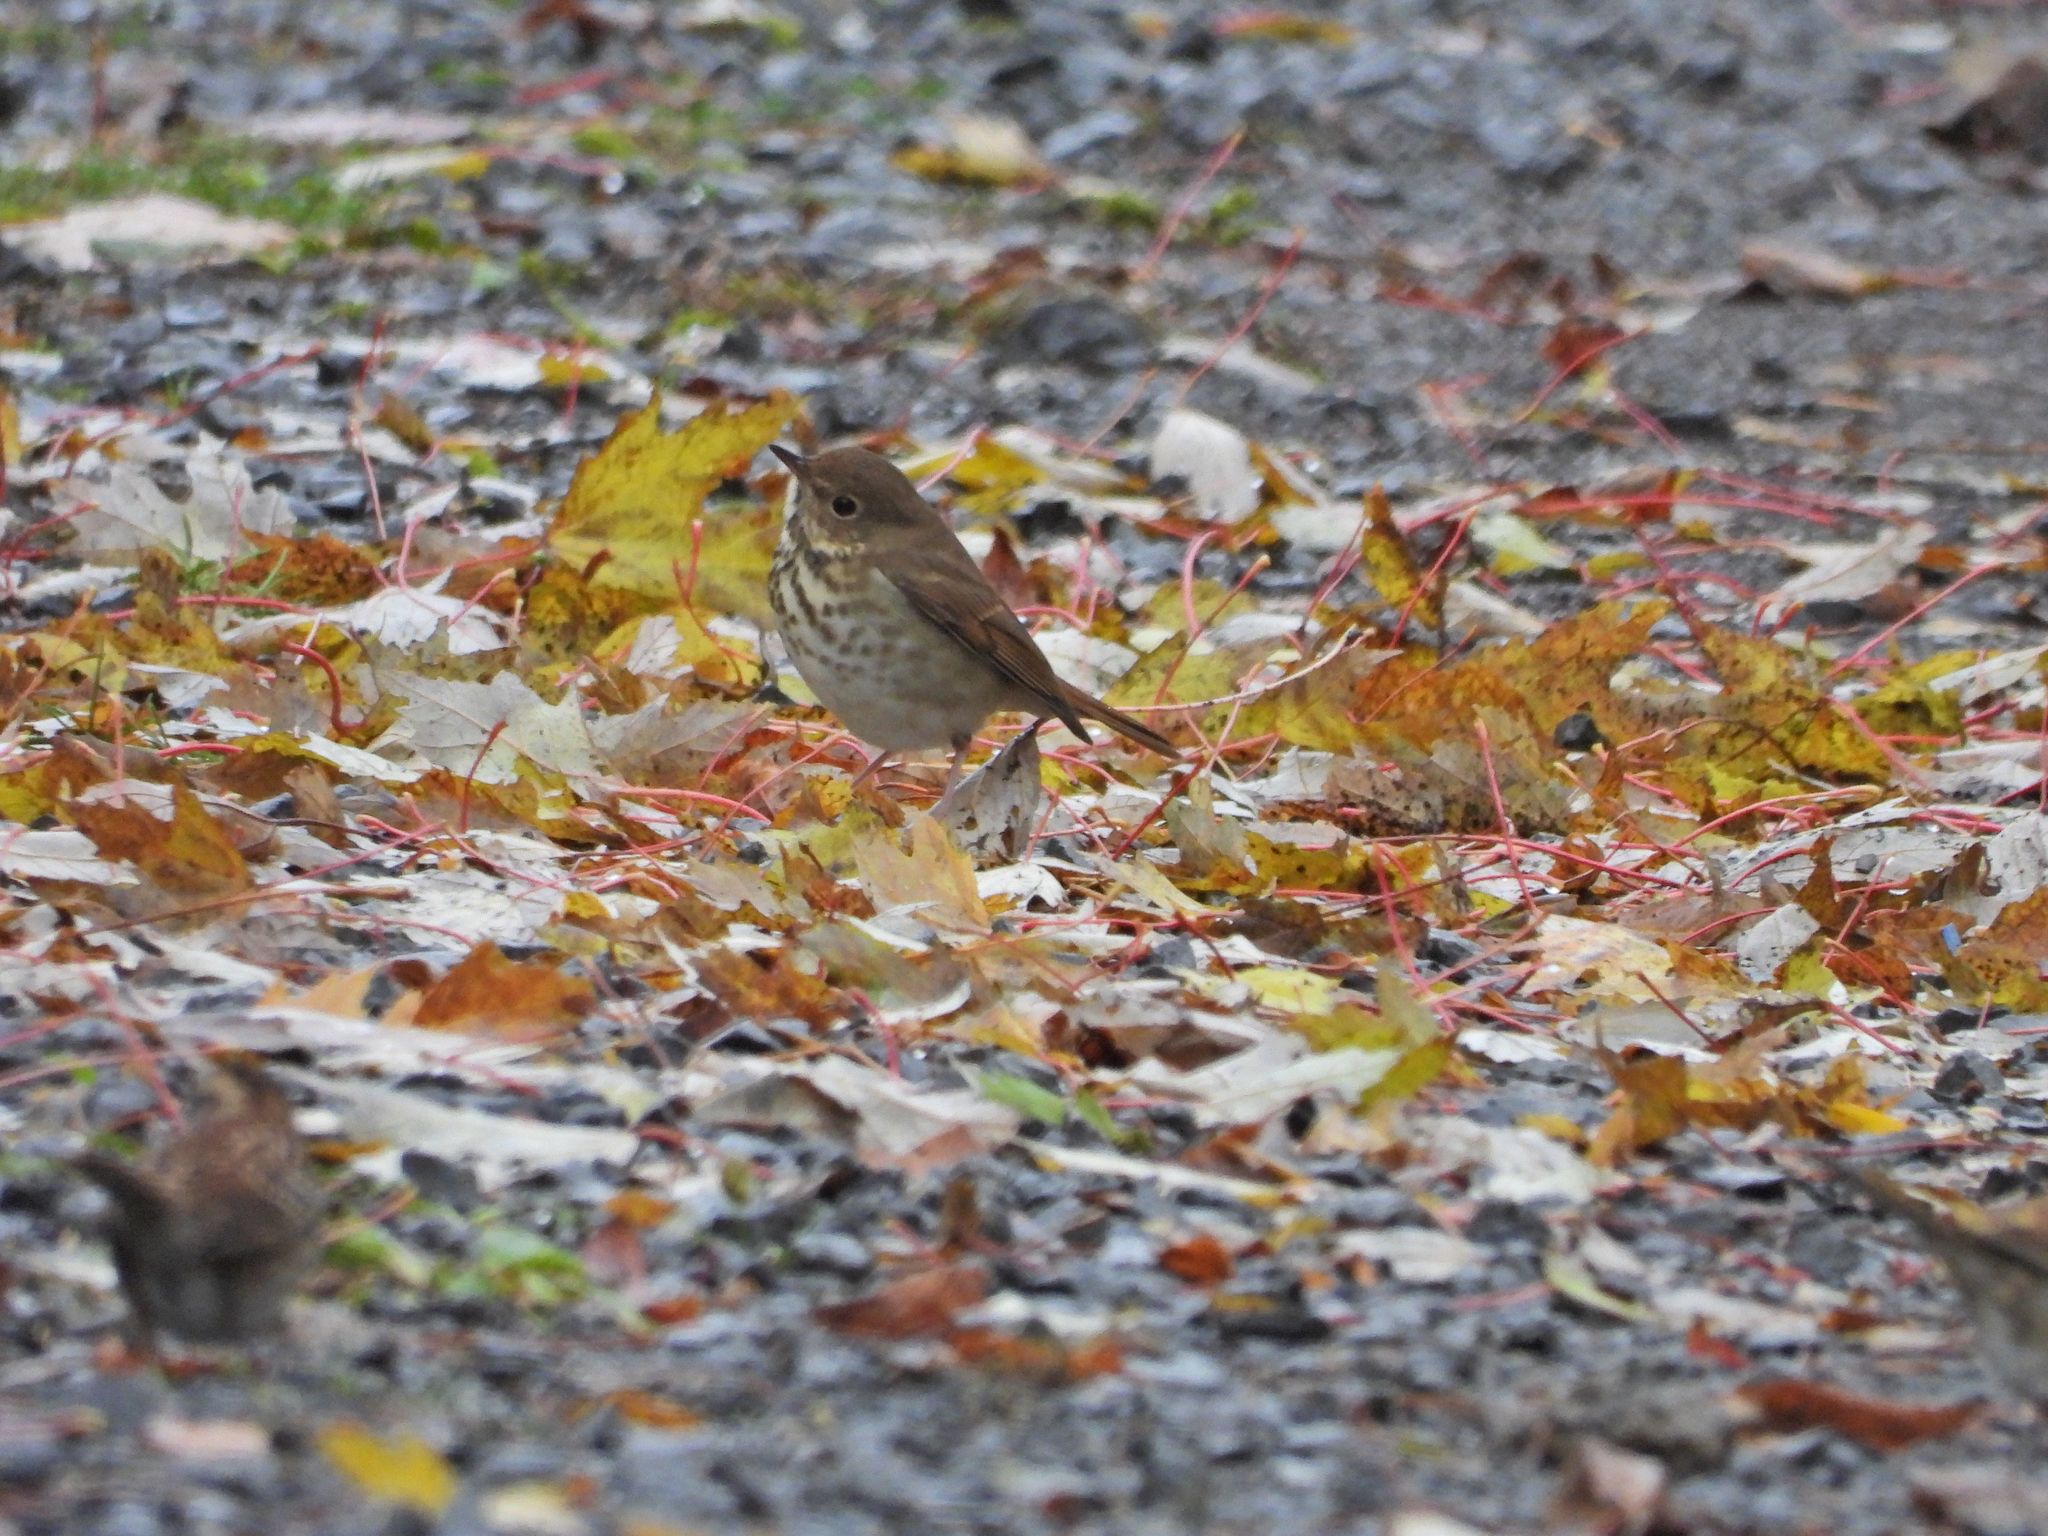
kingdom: Animalia
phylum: Chordata
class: Aves
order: Passeriformes
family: Turdidae
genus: Catharus
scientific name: Catharus guttatus
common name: Hermit thrush
